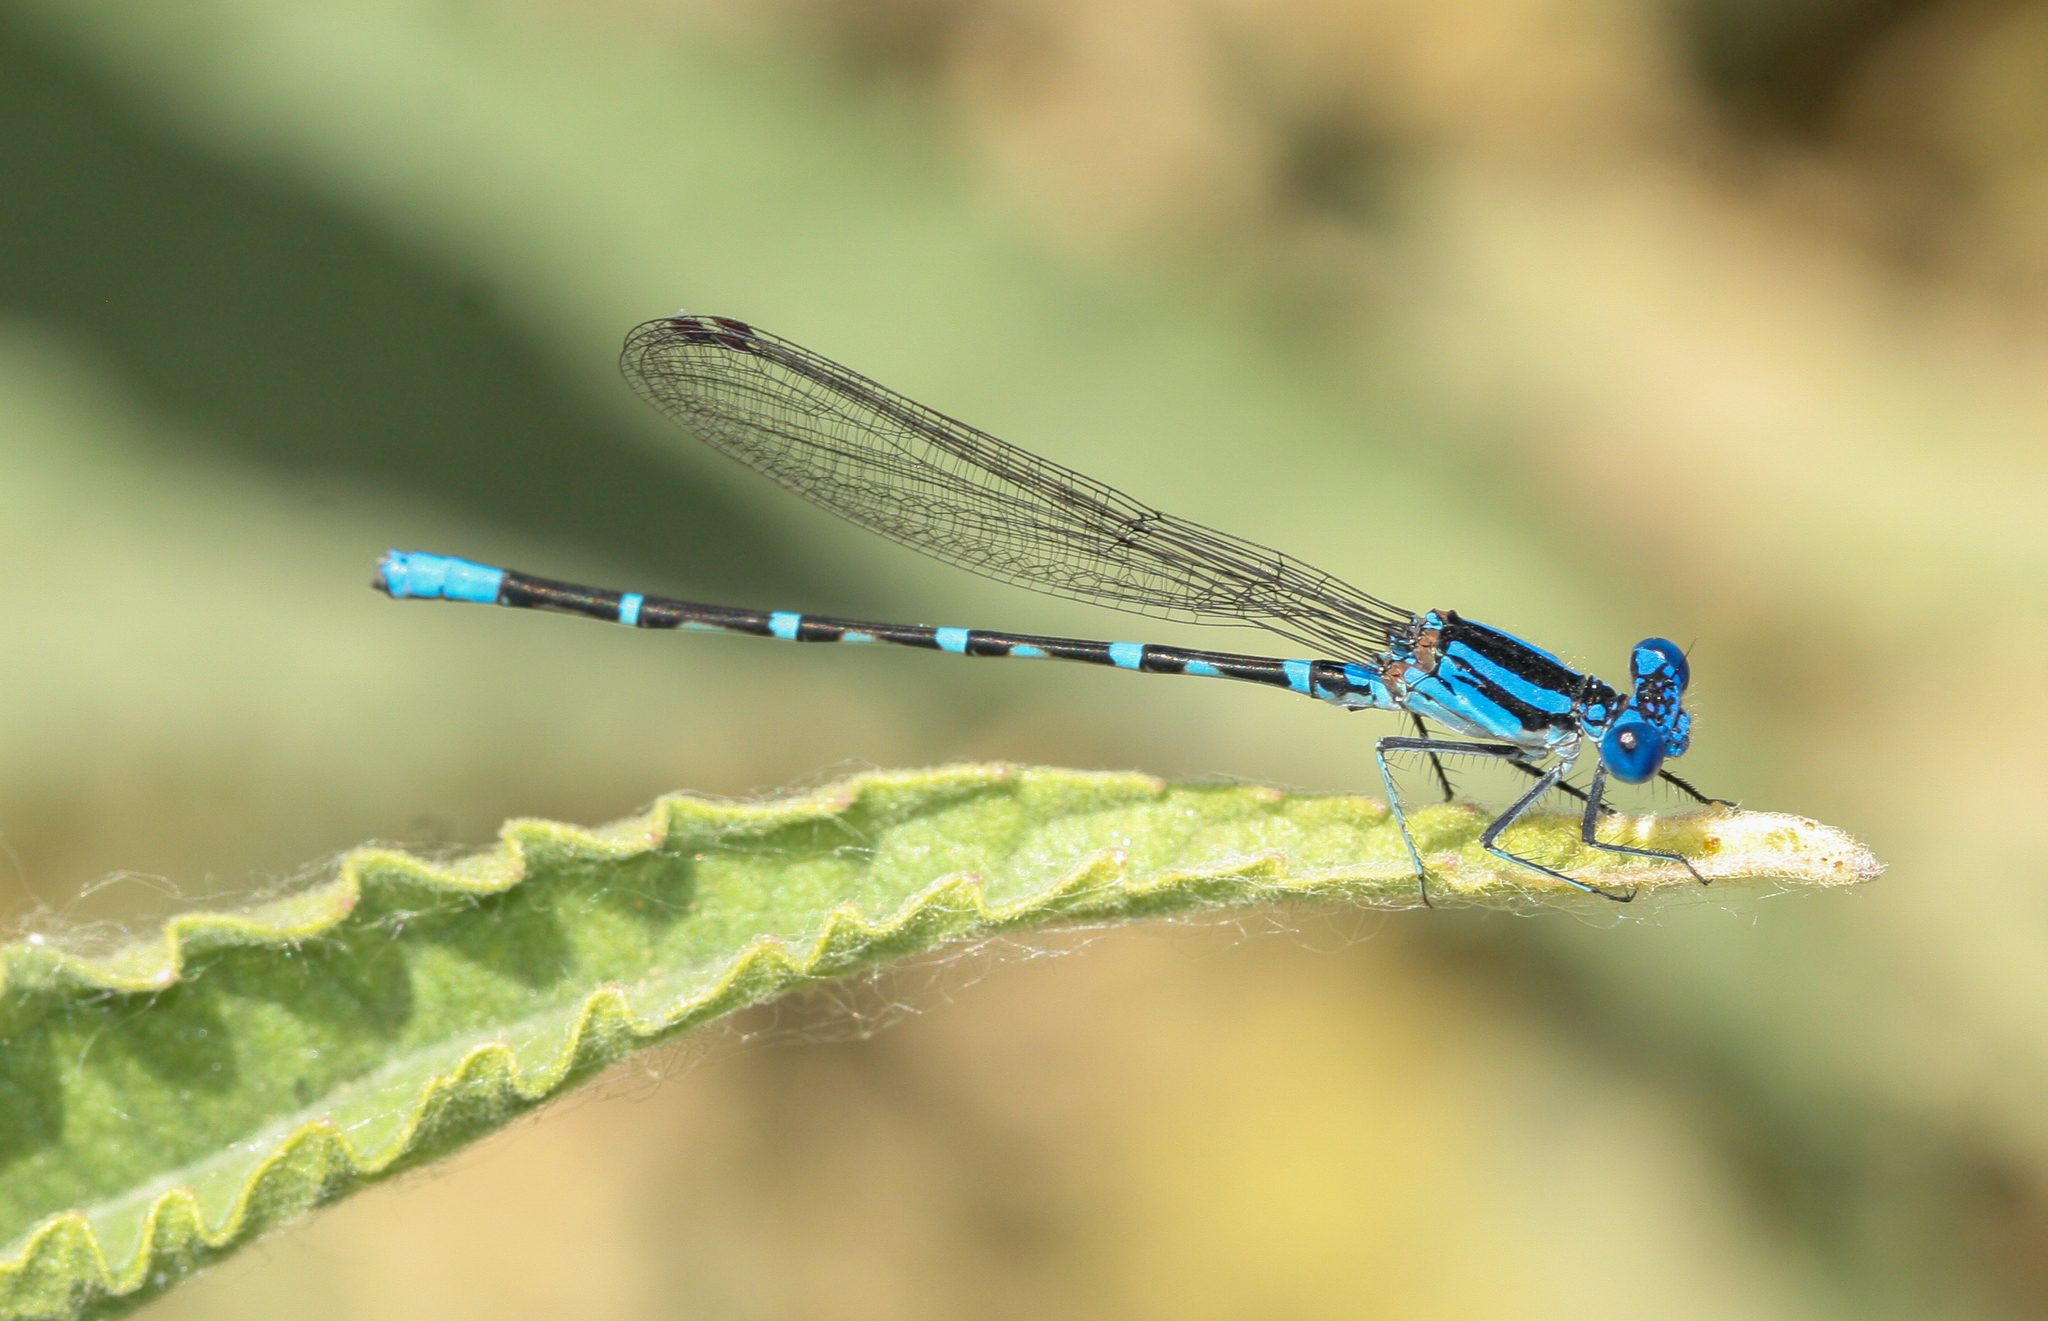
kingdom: Animalia
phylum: Arthropoda
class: Insecta
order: Odonata
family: Coenagrionidae
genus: Argia
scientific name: Argia sedula
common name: Blue-ringed dancer
